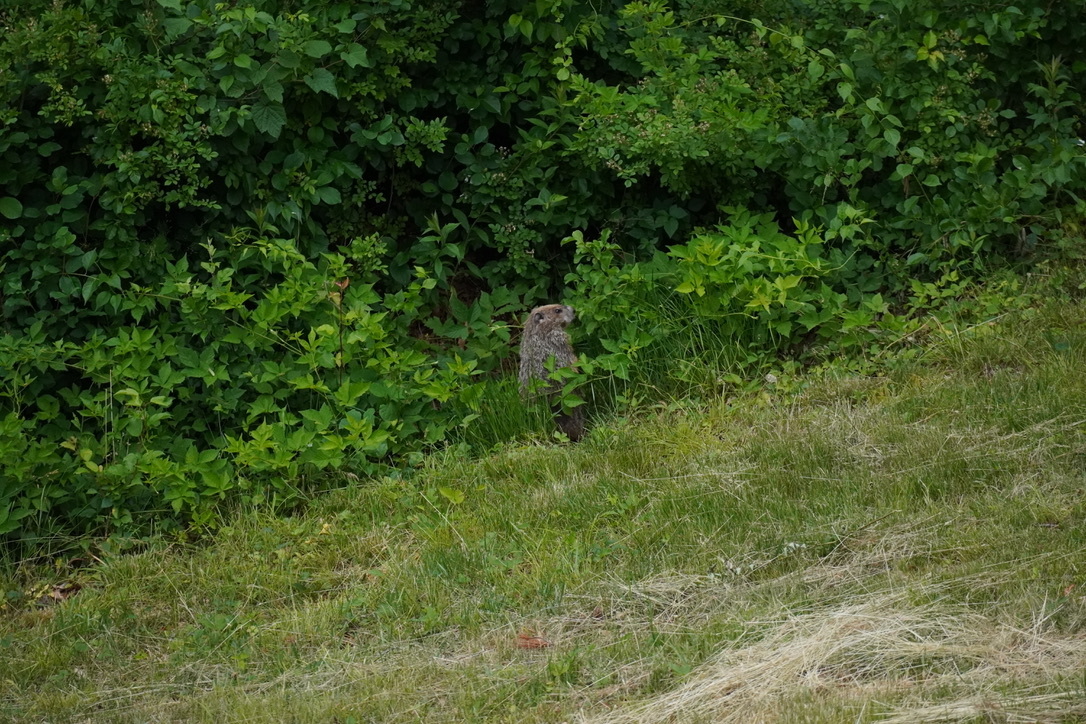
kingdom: Animalia
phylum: Chordata
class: Mammalia
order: Rodentia
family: Sciuridae
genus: Marmota
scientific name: Marmota monax
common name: Groundhog
